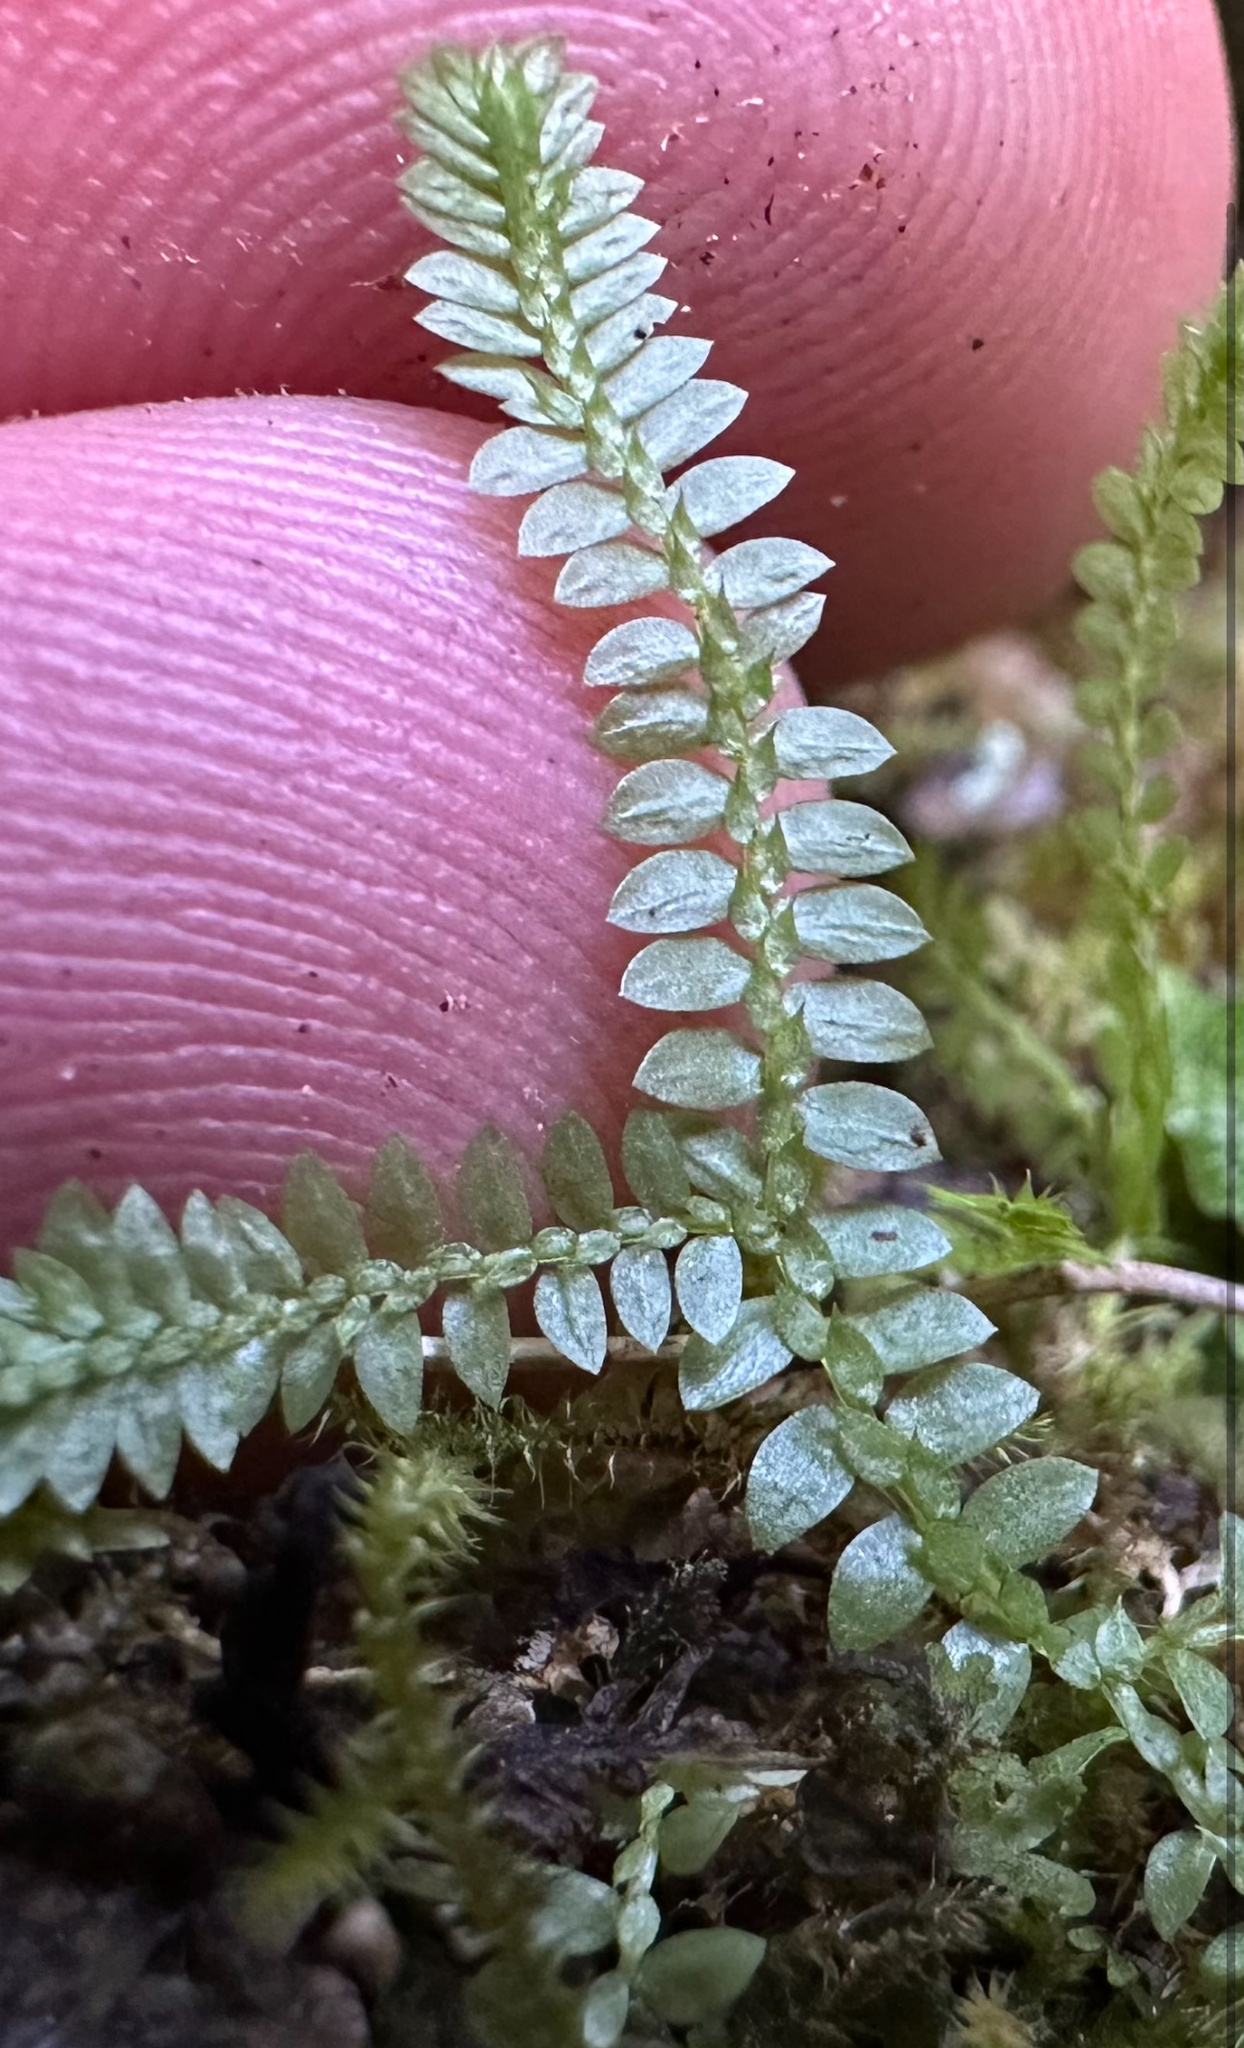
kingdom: Plantae
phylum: Tracheophyta
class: Lycopodiopsida
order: Selaginellales
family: Selaginellaceae
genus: Selaginella
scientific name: Selaginella apoda
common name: Creeping spikemoss
